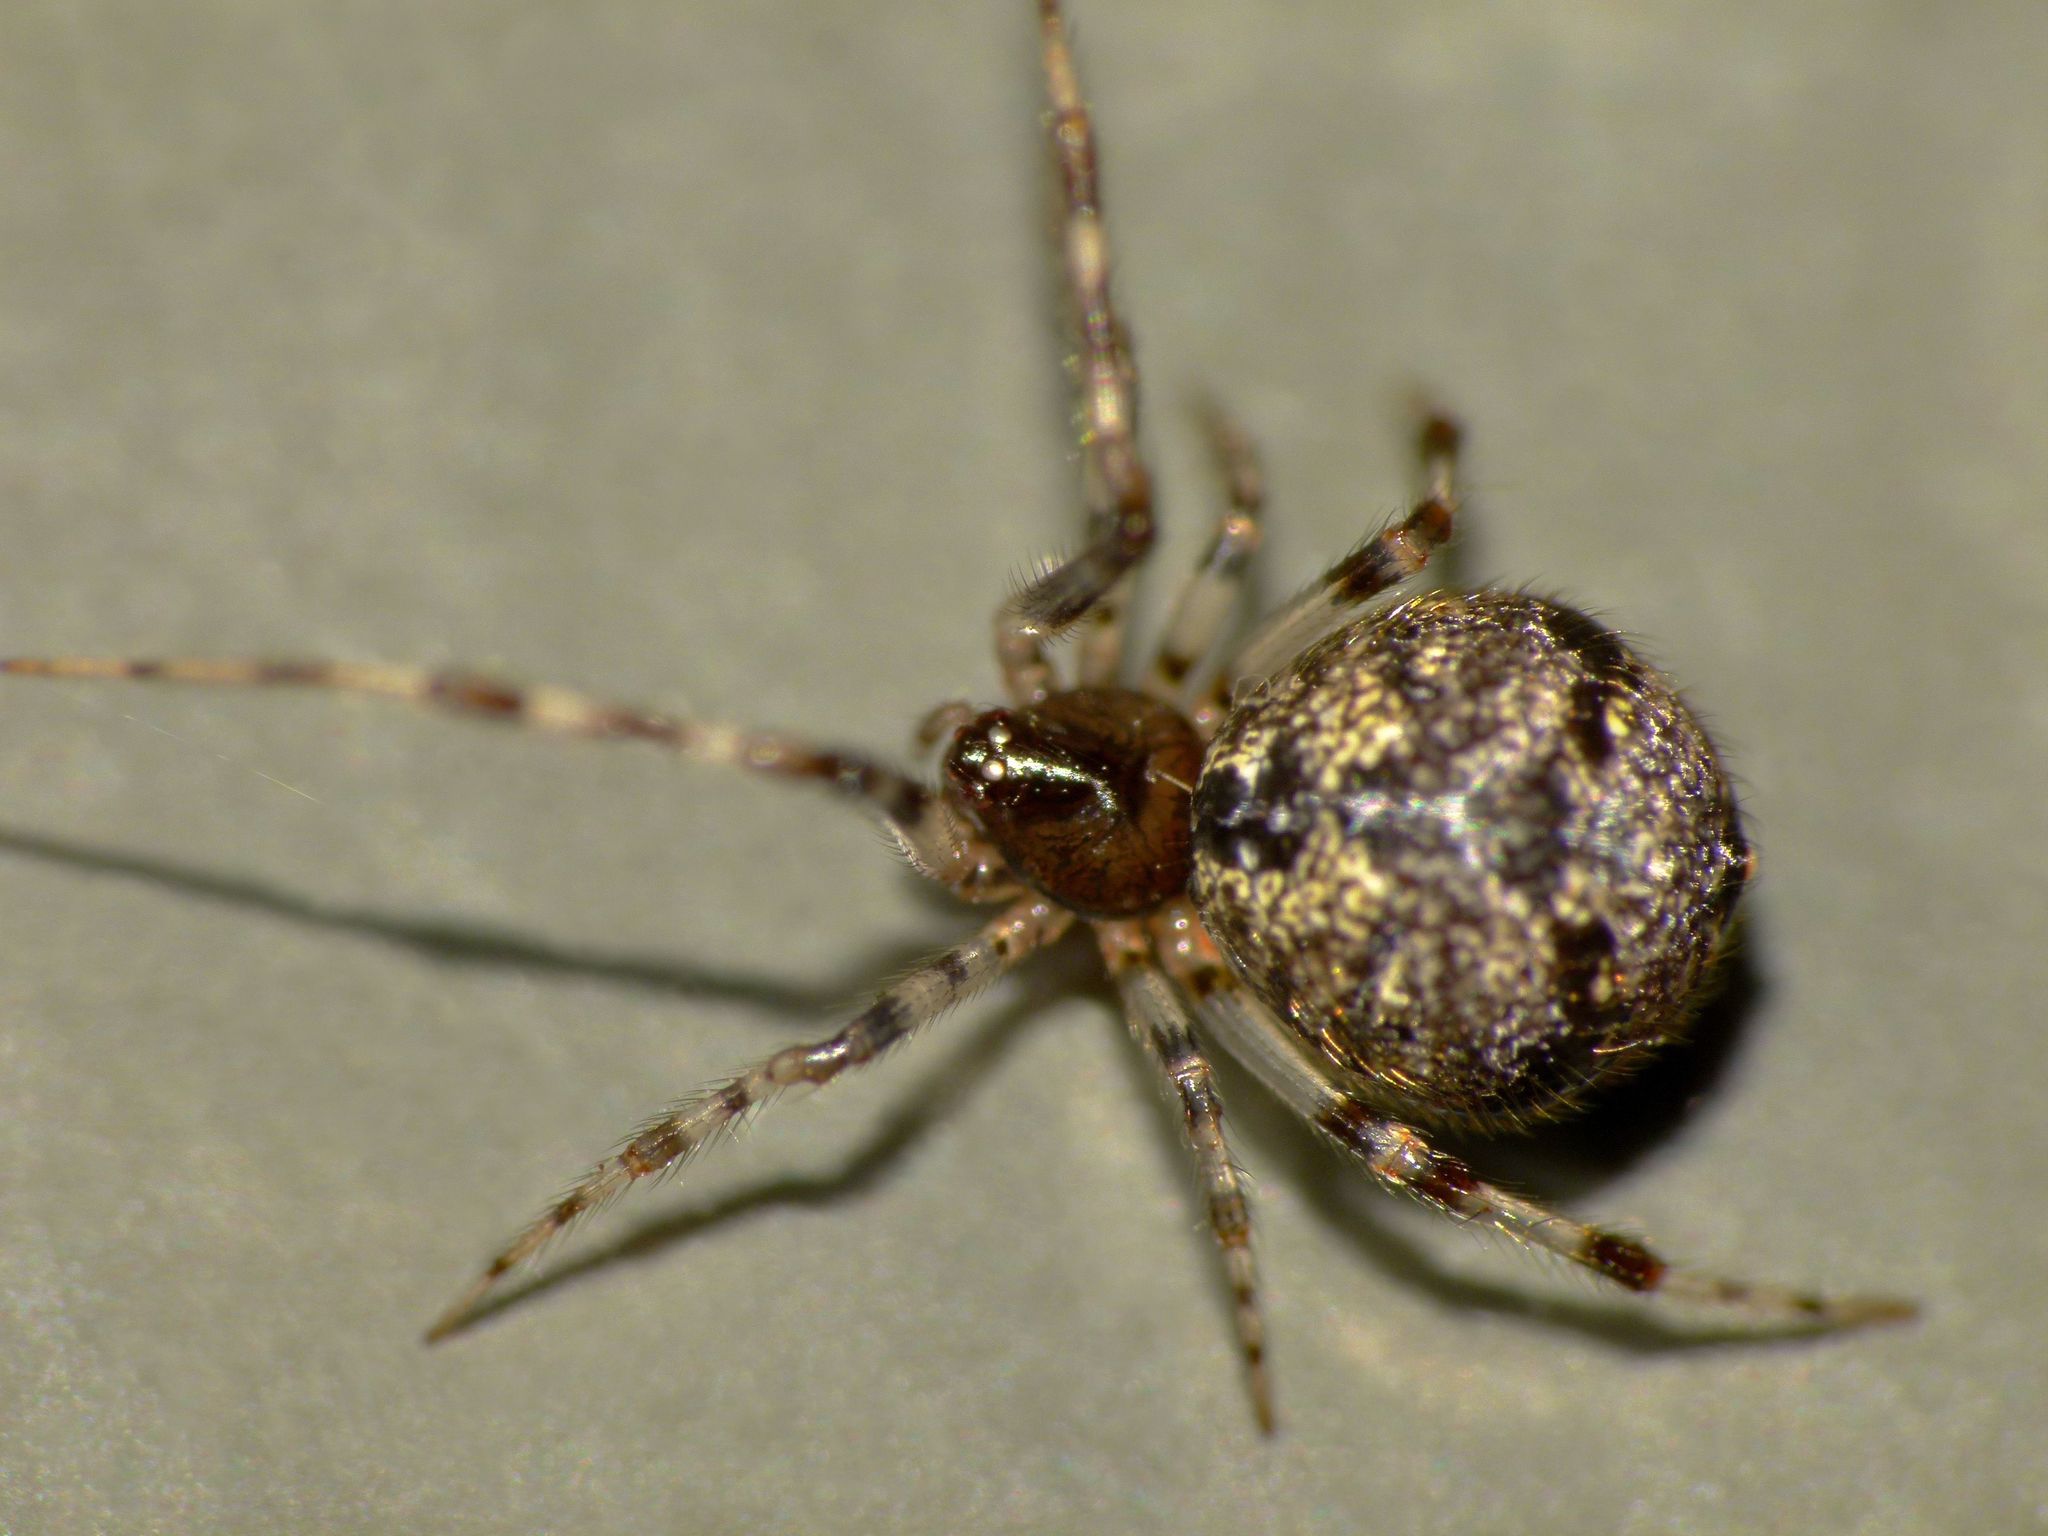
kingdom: Animalia
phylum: Arthropoda
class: Arachnida
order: Araneae
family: Theridiidae
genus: Cryptachaea
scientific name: Cryptachaea blattea
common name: Theridiid spider
